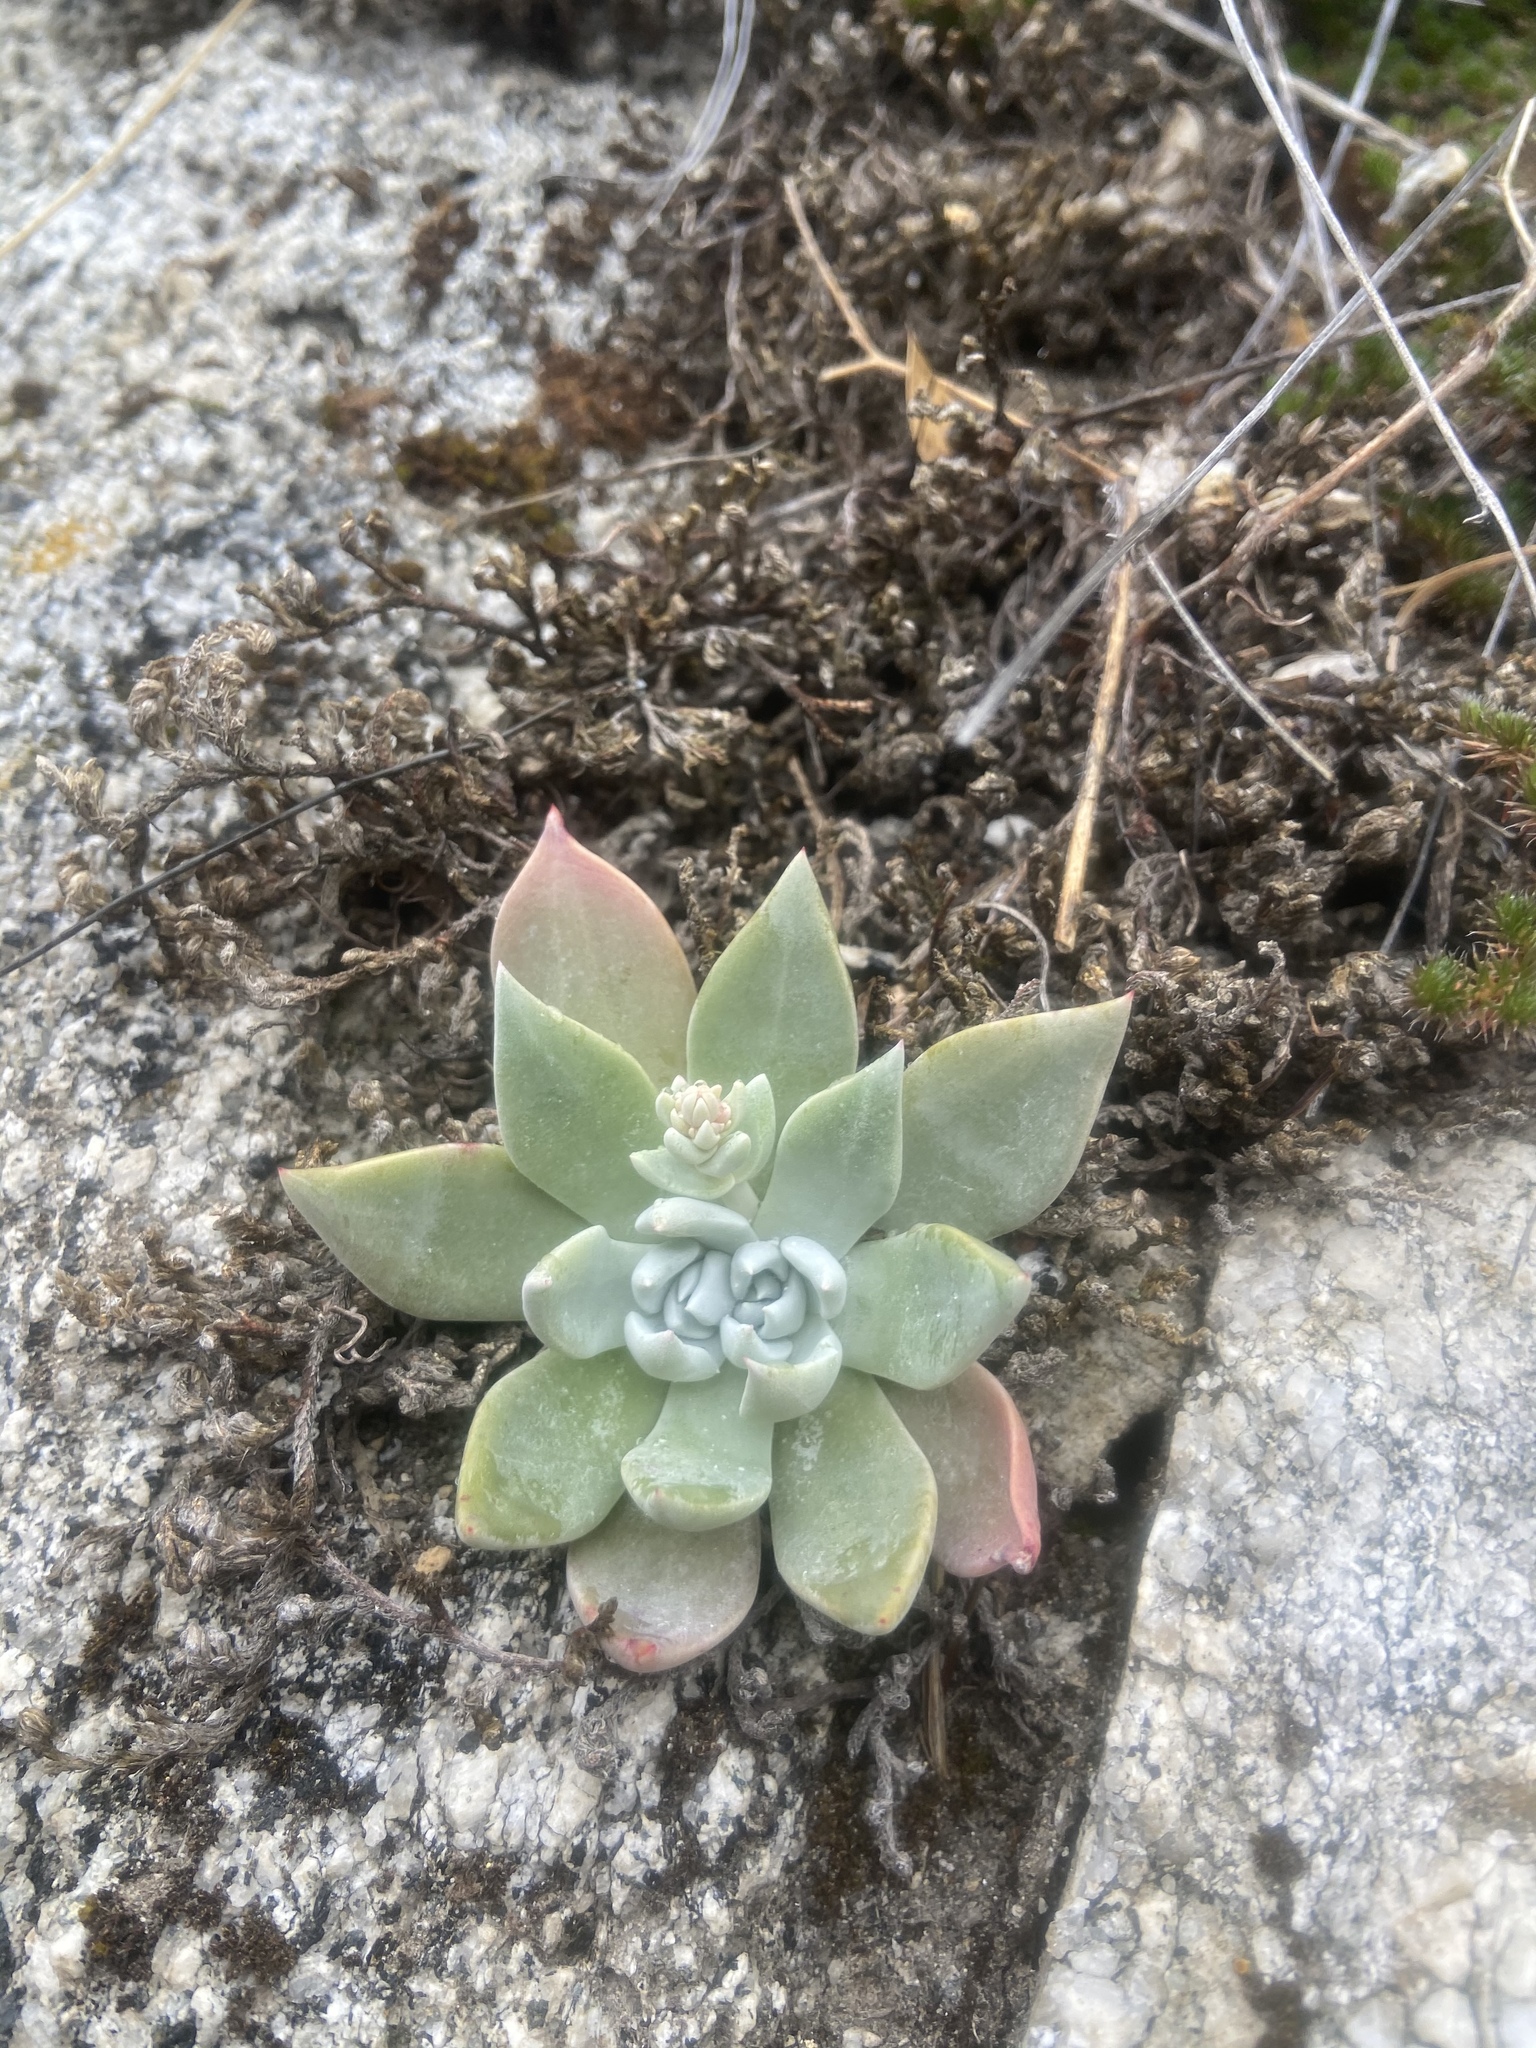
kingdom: Plantae
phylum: Tracheophyta
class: Magnoliopsida
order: Saxifragales
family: Crassulaceae
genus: Dudleya
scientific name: Dudleya cymosa
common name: Canyon dudleya
